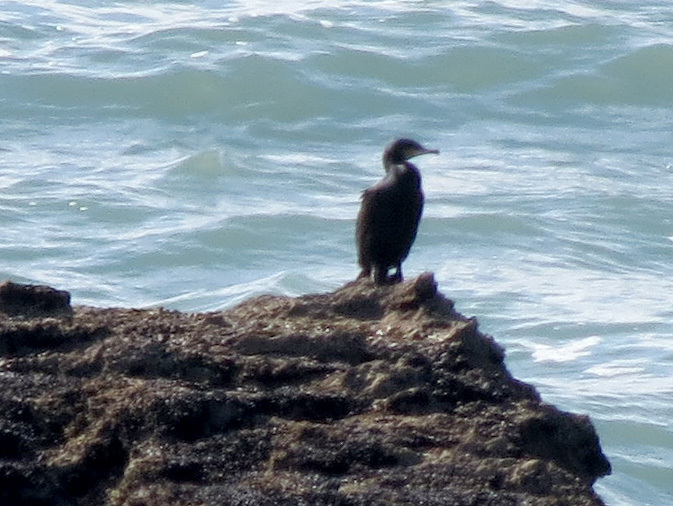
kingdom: Animalia
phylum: Chordata
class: Aves
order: Suliformes
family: Phalacrocoracidae
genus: Phalacrocorax
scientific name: Phalacrocorax carbo
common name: Great cormorant
